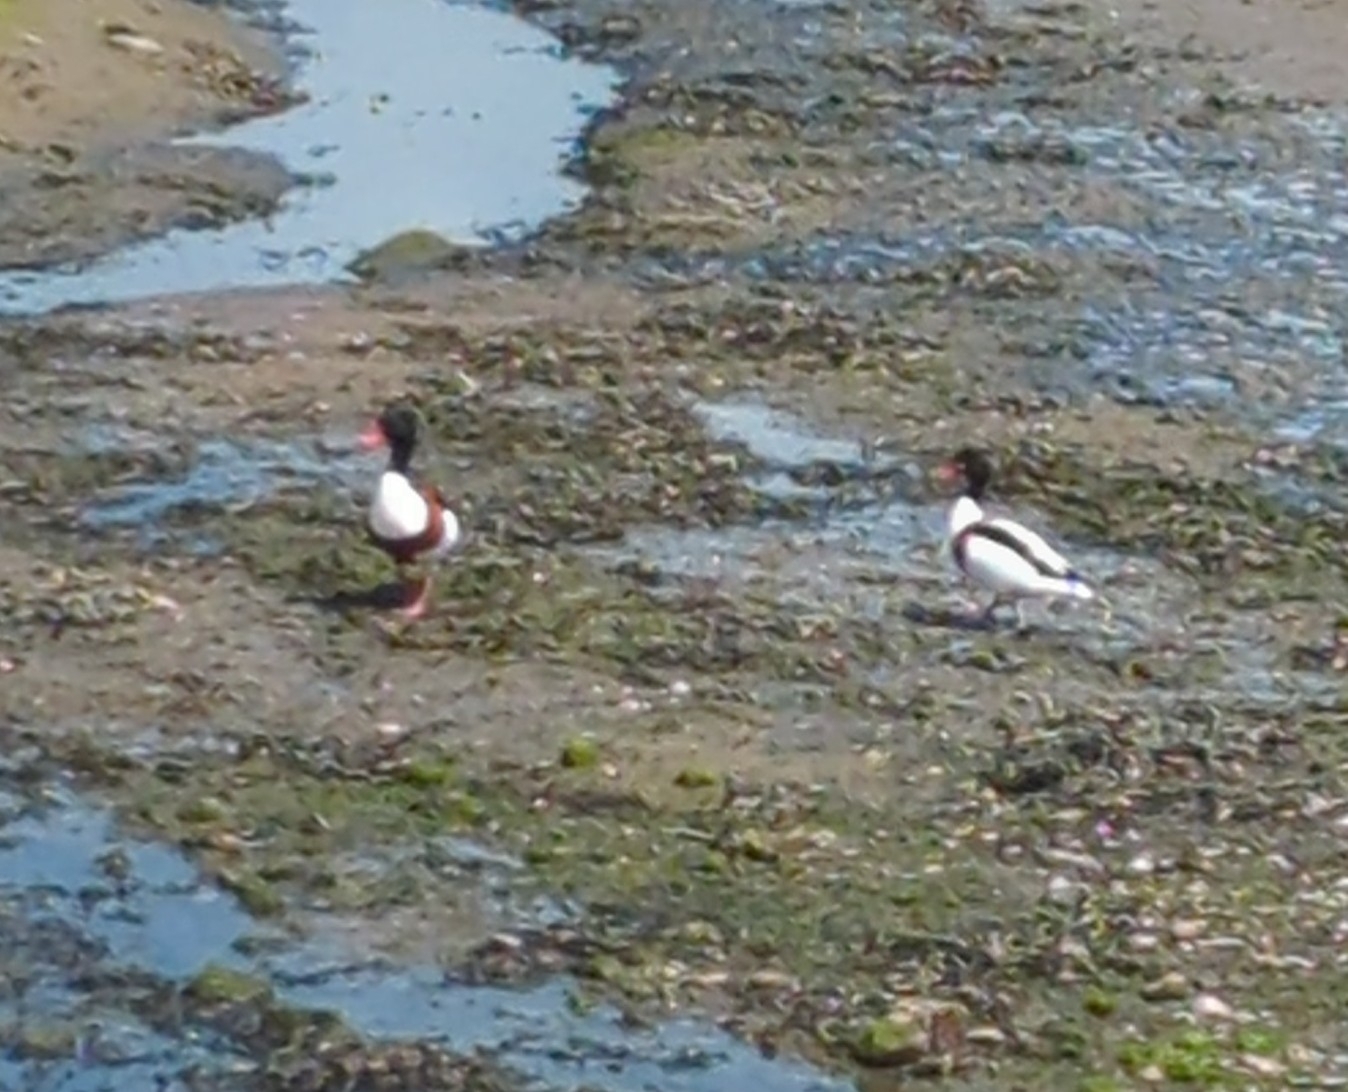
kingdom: Animalia
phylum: Chordata
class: Aves
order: Anseriformes
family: Anatidae
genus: Tadorna
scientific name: Tadorna tadorna
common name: Common shelduck
